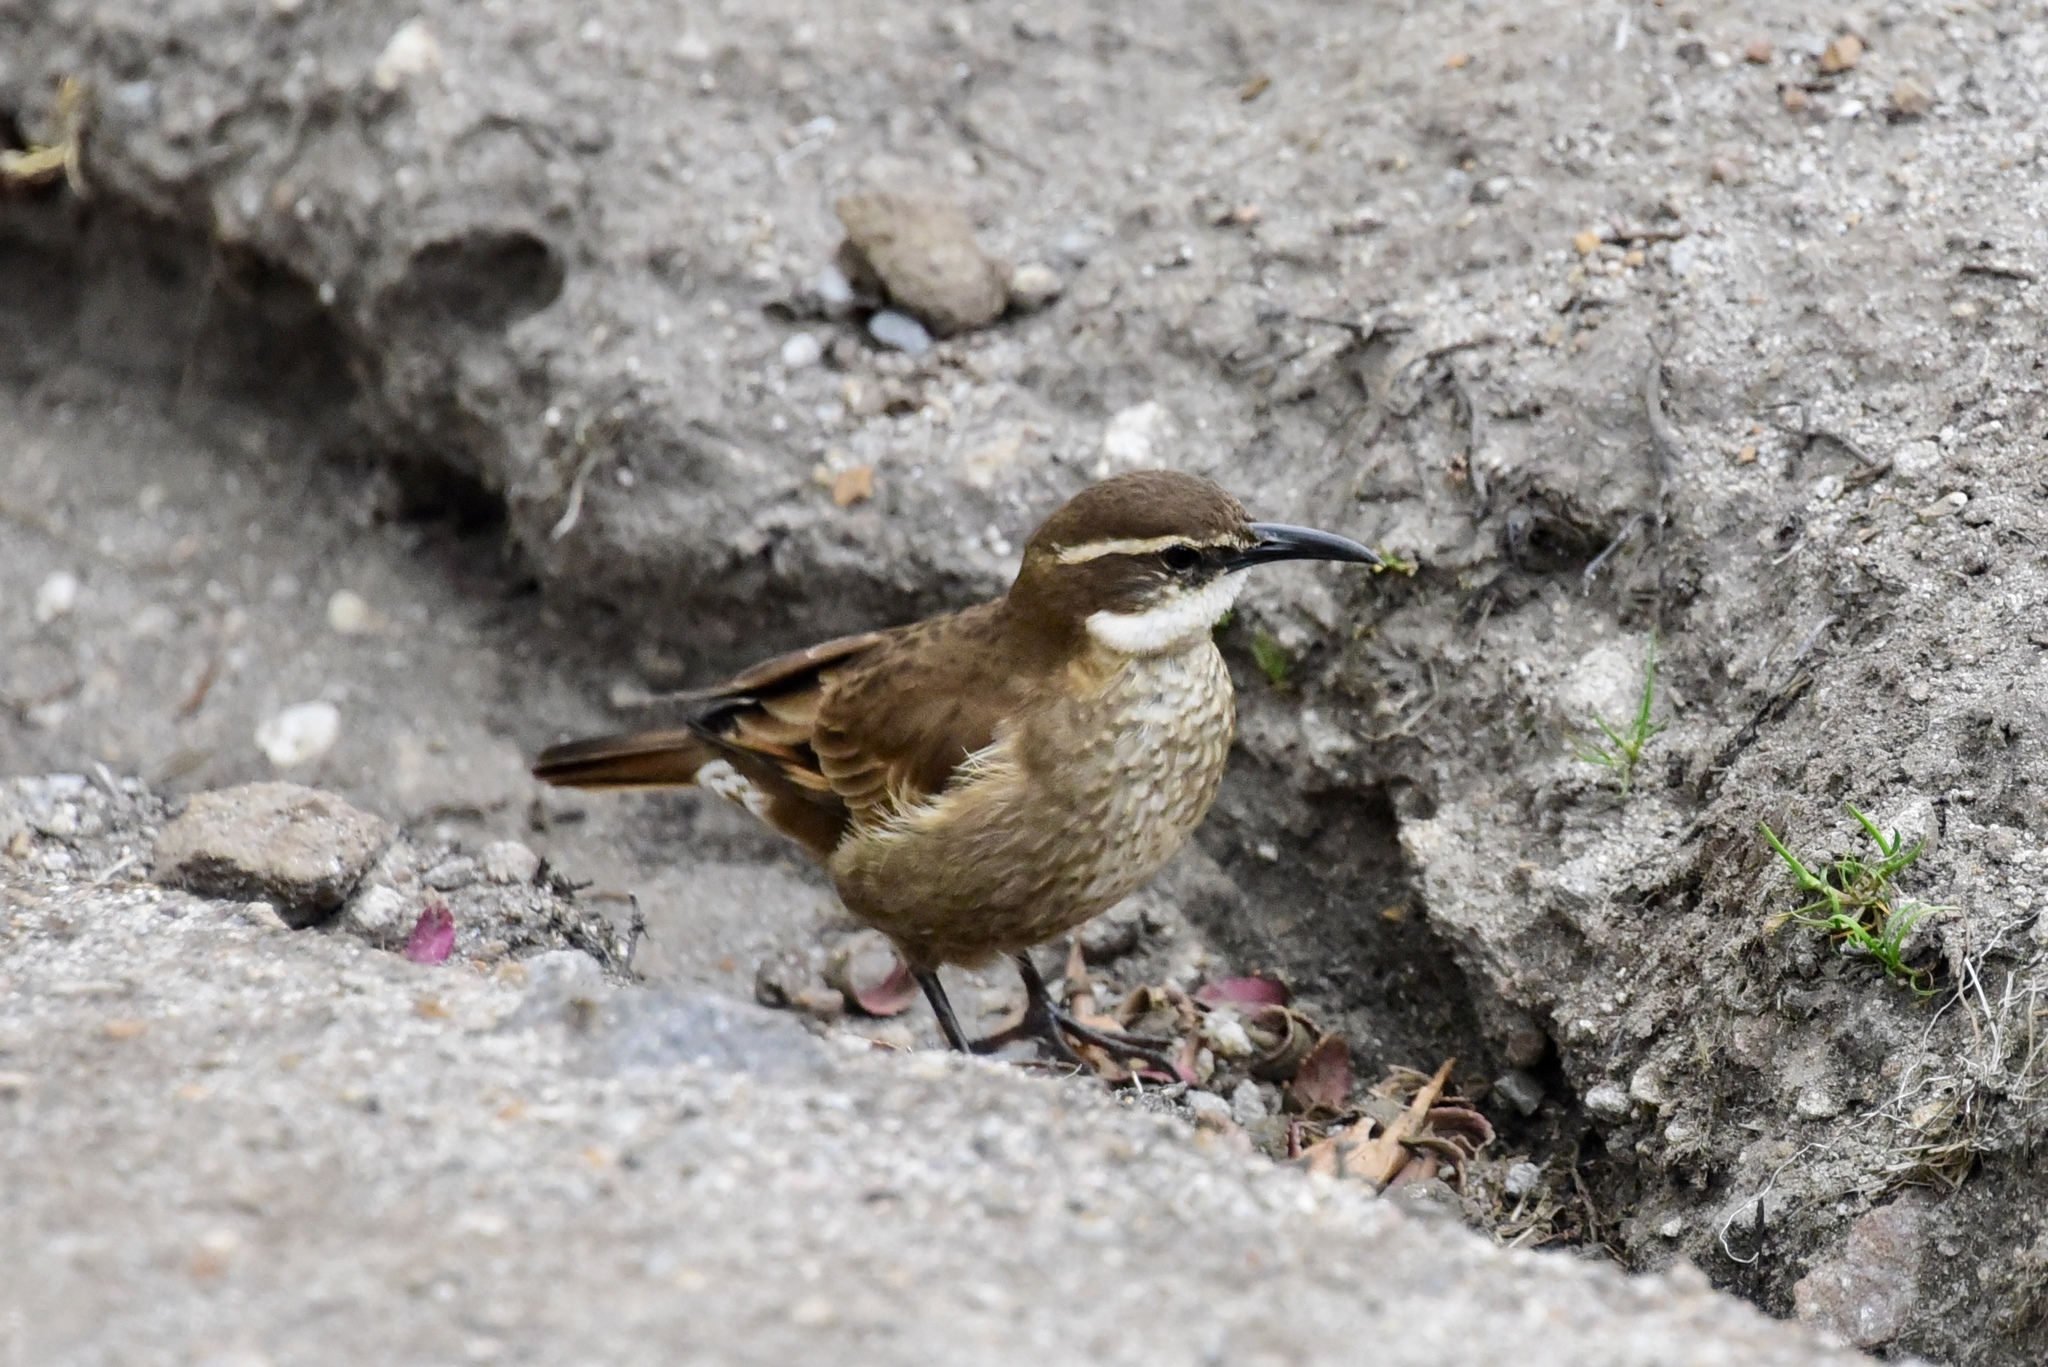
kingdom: Animalia
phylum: Chordata
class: Aves
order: Passeriformes
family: Furnariidae
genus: Cinclodes
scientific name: Cinclodes excelsior
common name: Stout-billed cinclodes
